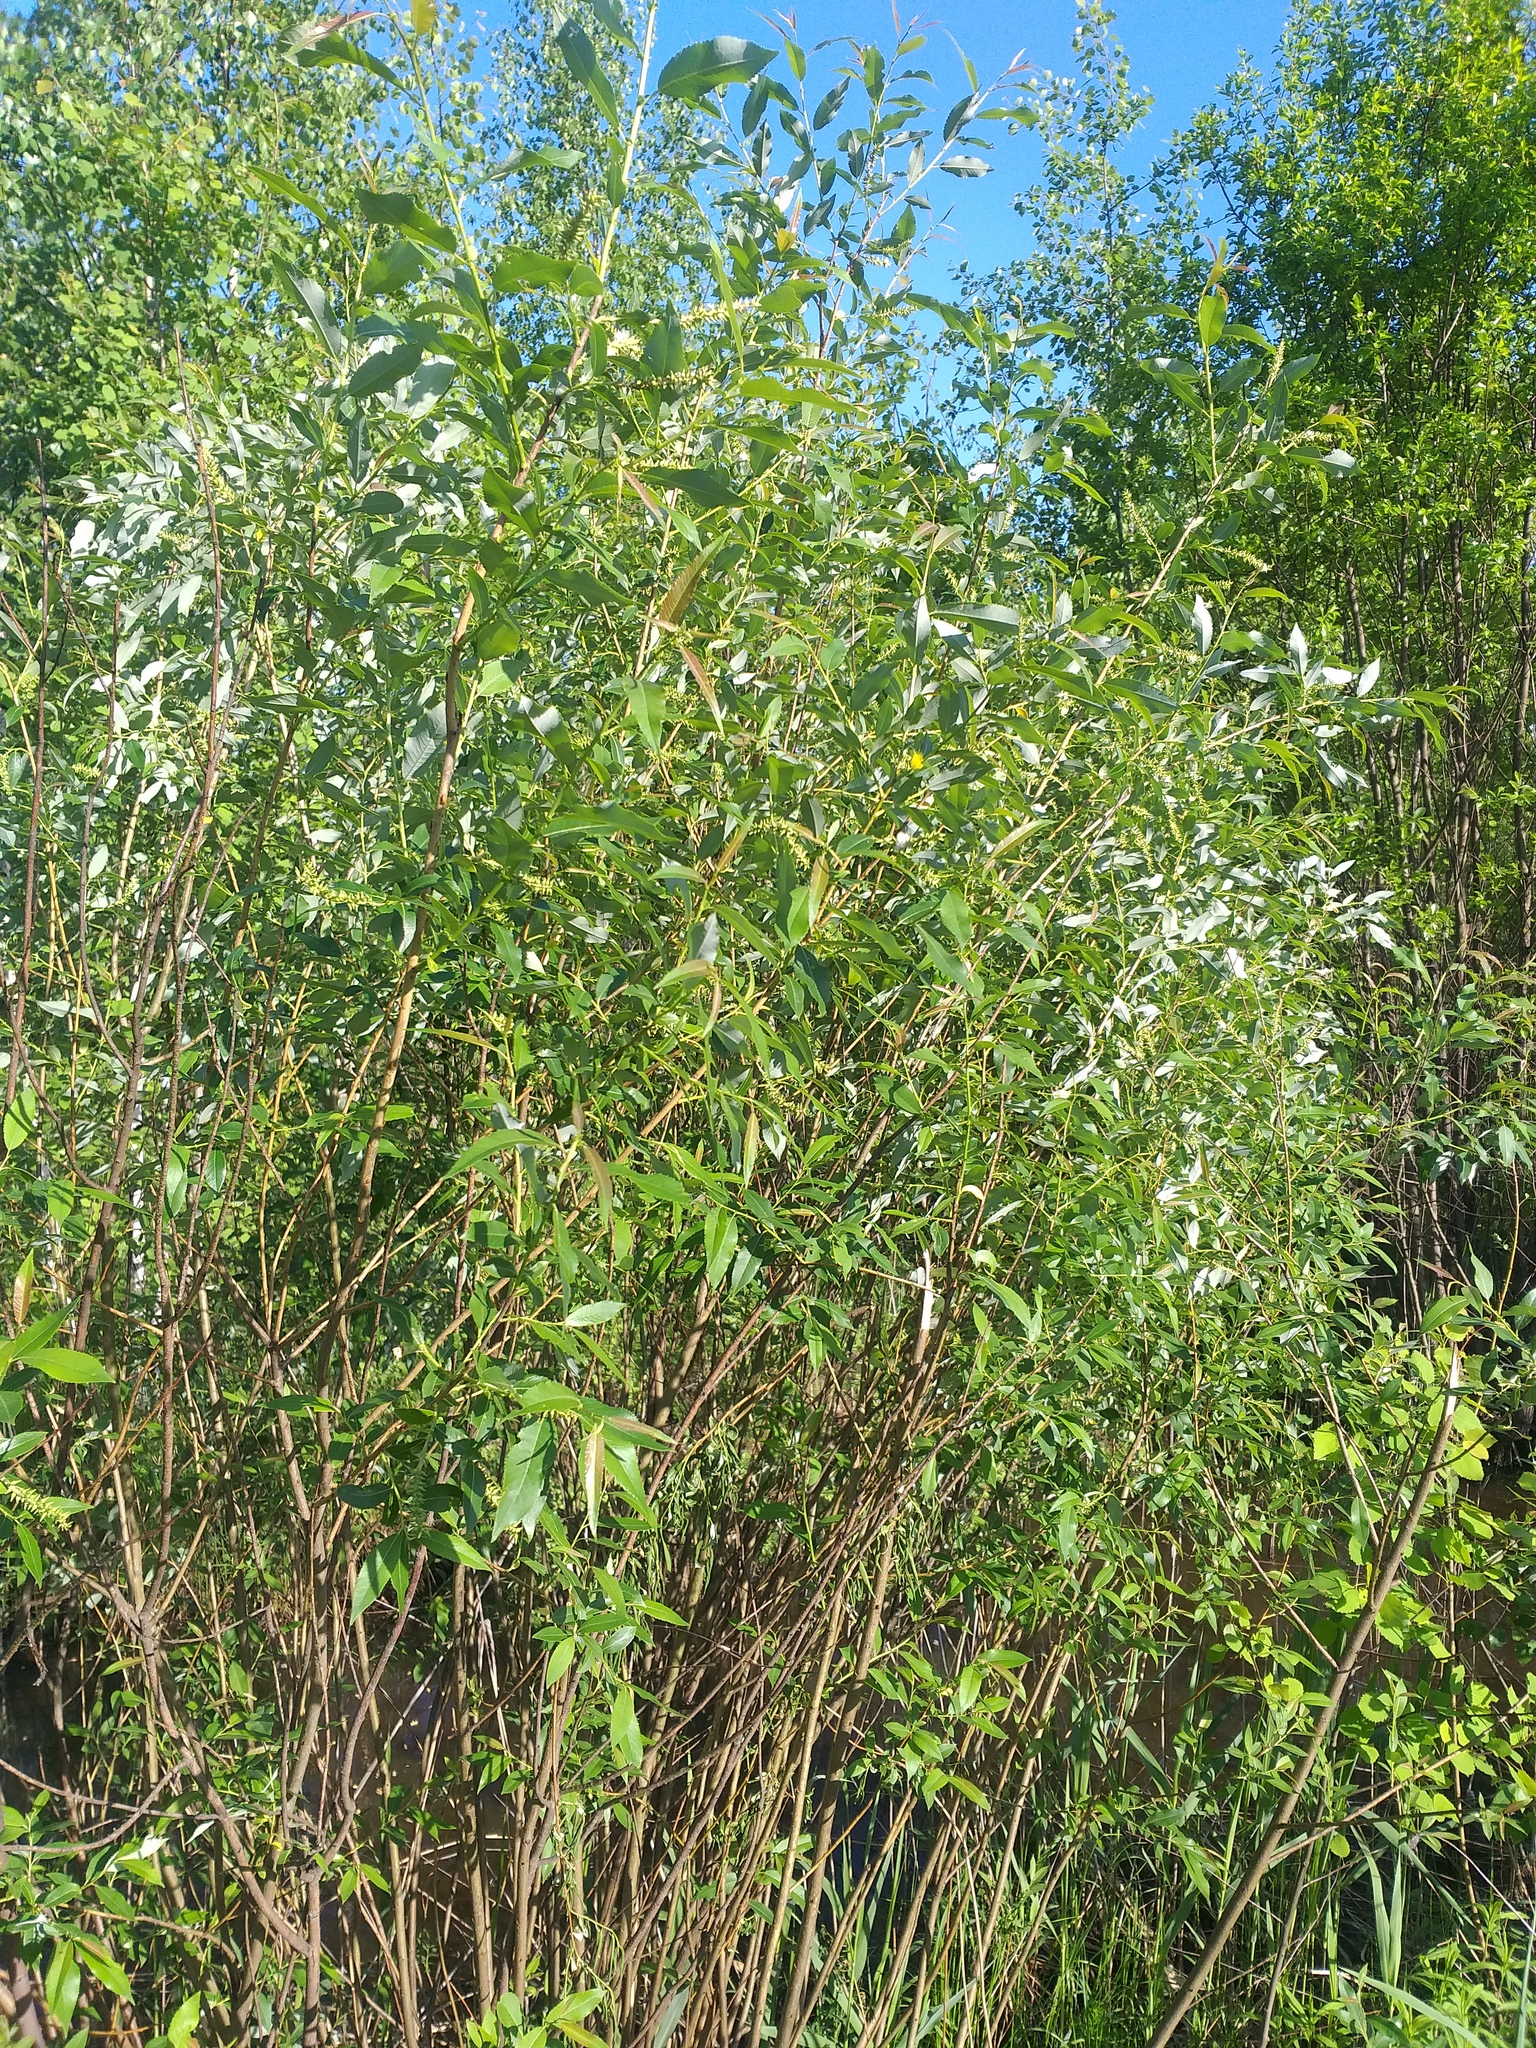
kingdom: Plantae
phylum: Tracheophyta
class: Magnoliopsida
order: Malpighiales
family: Salicaceae
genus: Salix
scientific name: Salix triandra
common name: Almond willow
